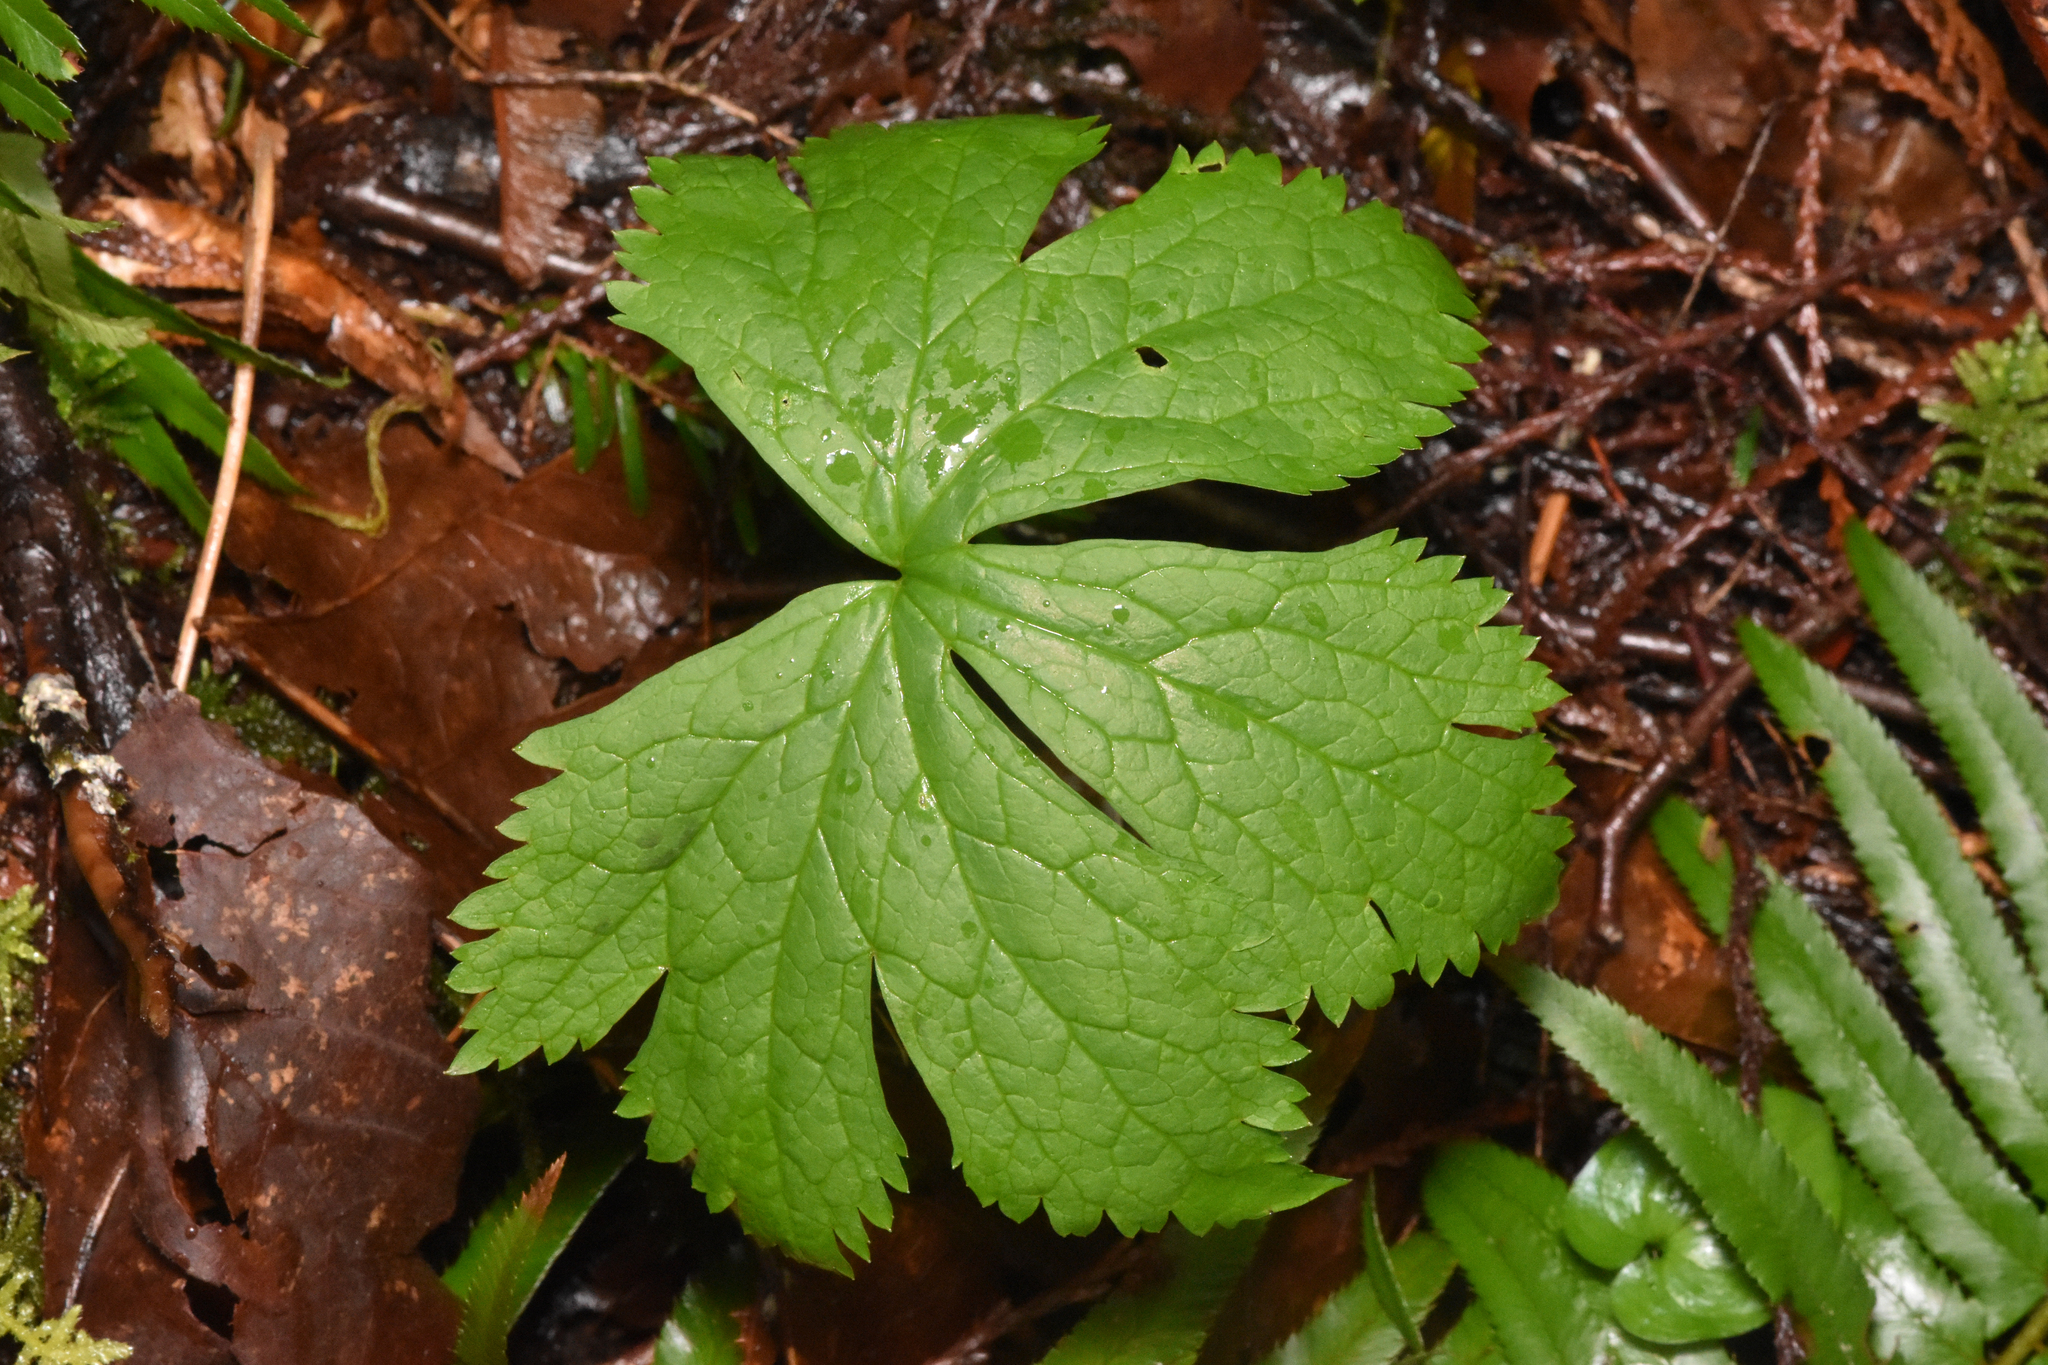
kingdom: Plantae
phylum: Tracheophyta
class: Magnoliopsida
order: Ranunculales
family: Ranunculaceae
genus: Trautvetteria
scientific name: Trautvetteria carolinensis
